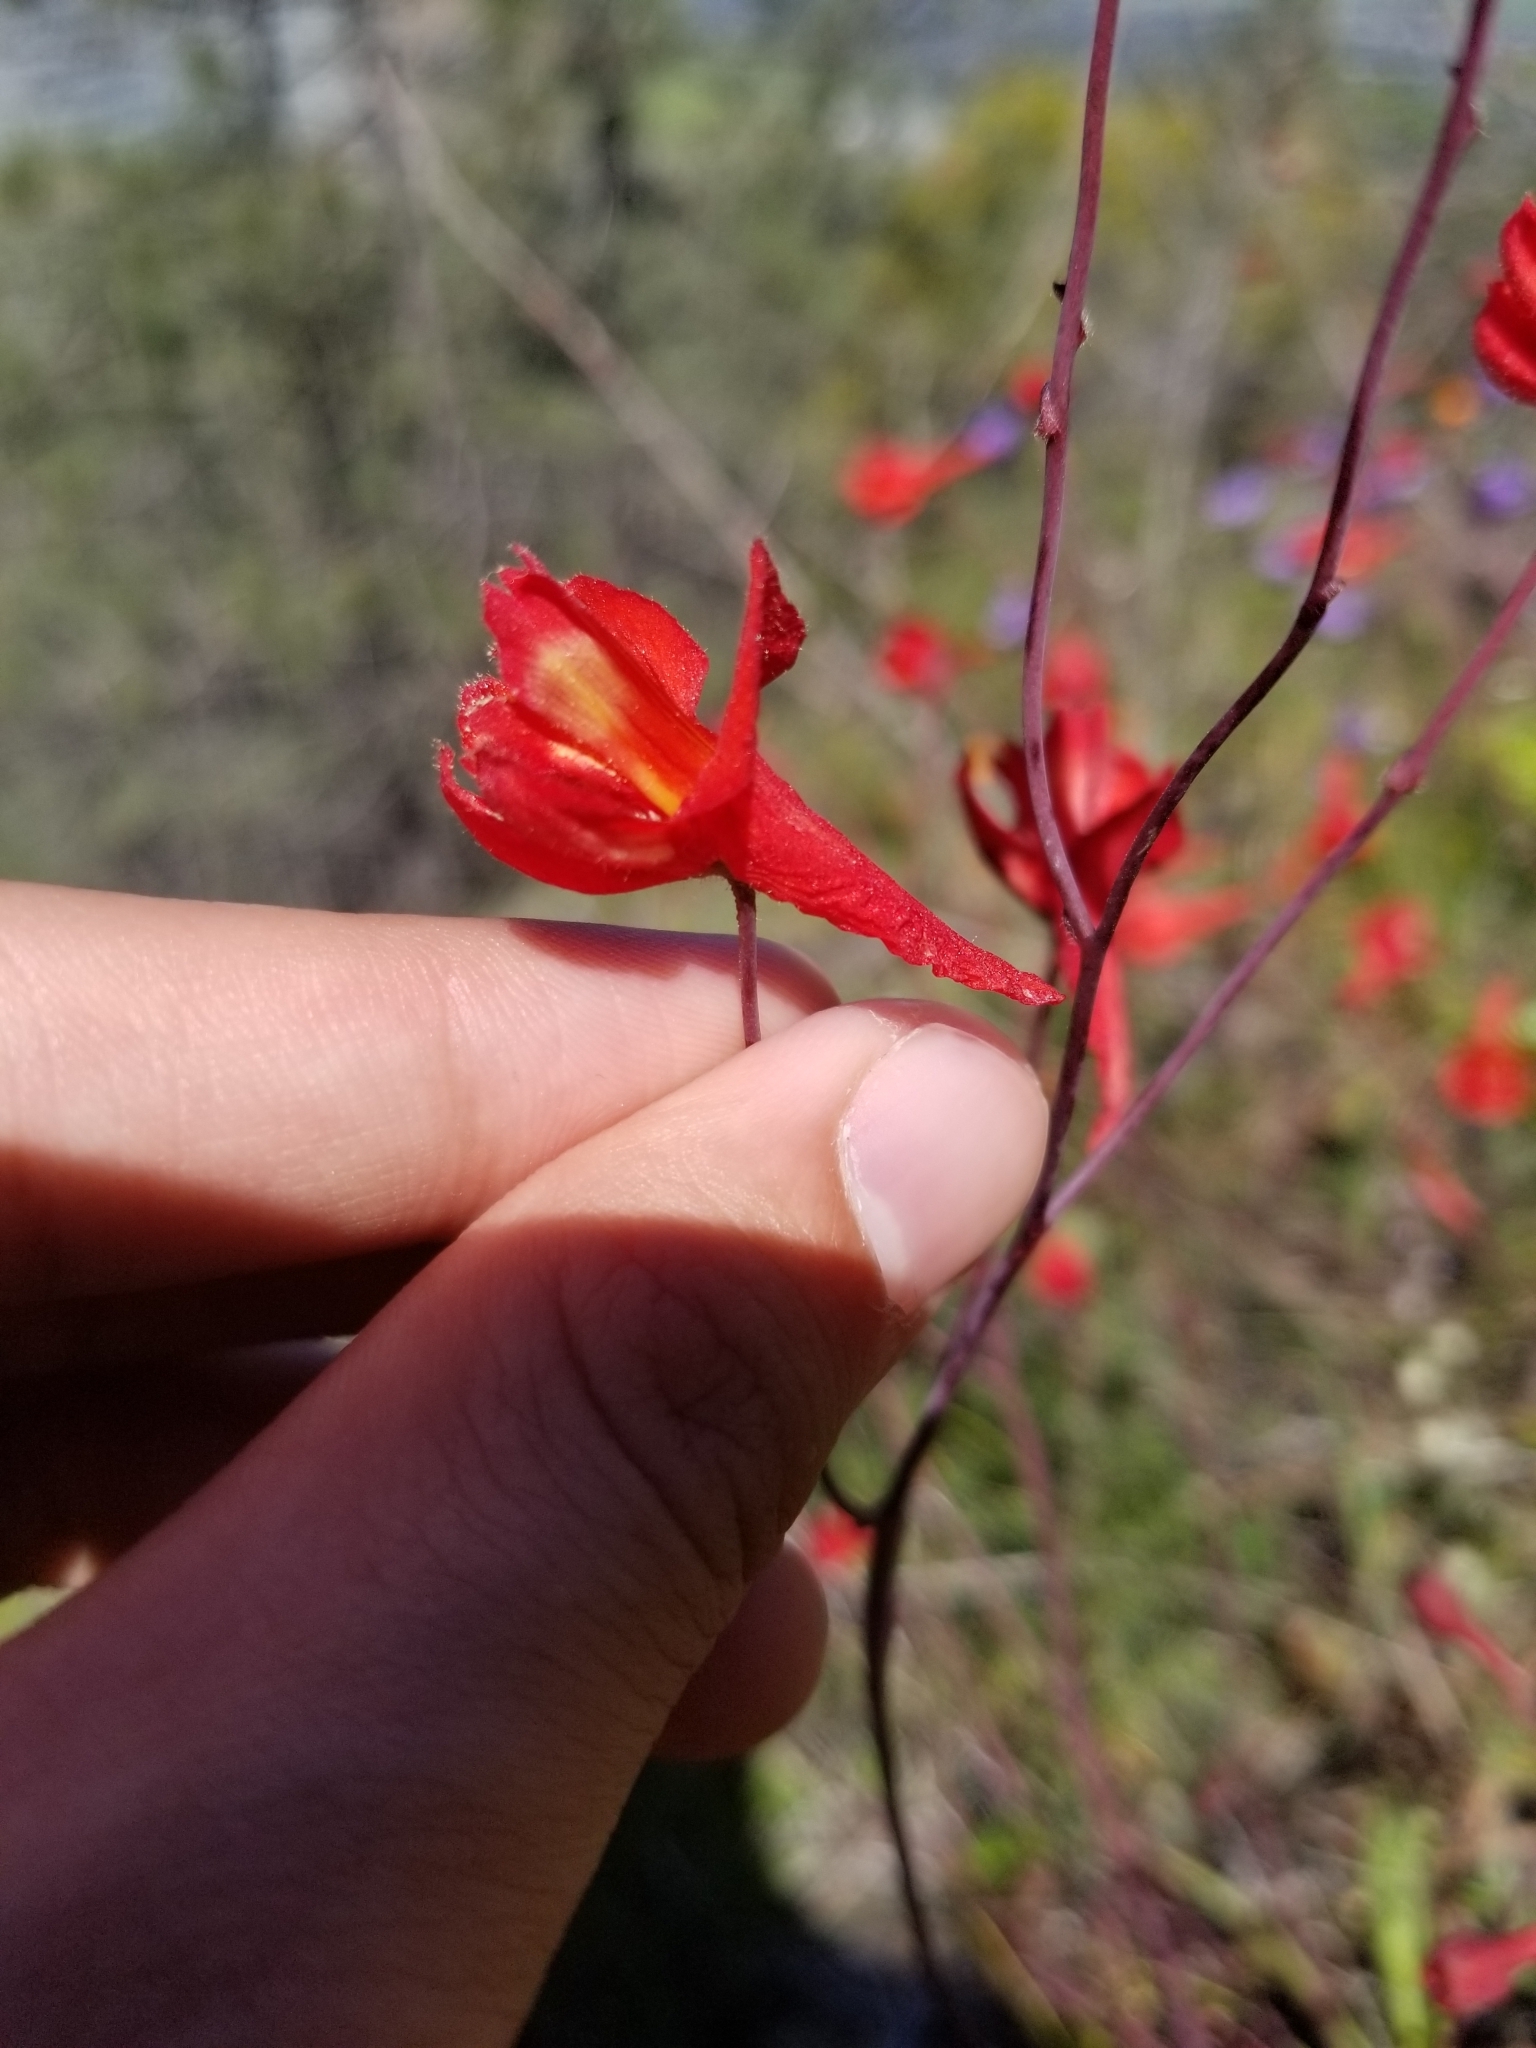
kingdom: Plantae
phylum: Tracheophyta
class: Magnoliopsida
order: Ranunculales
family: Ranunculaceae
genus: Delphinium
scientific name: Delphinium nudicaule
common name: Red larkspur
